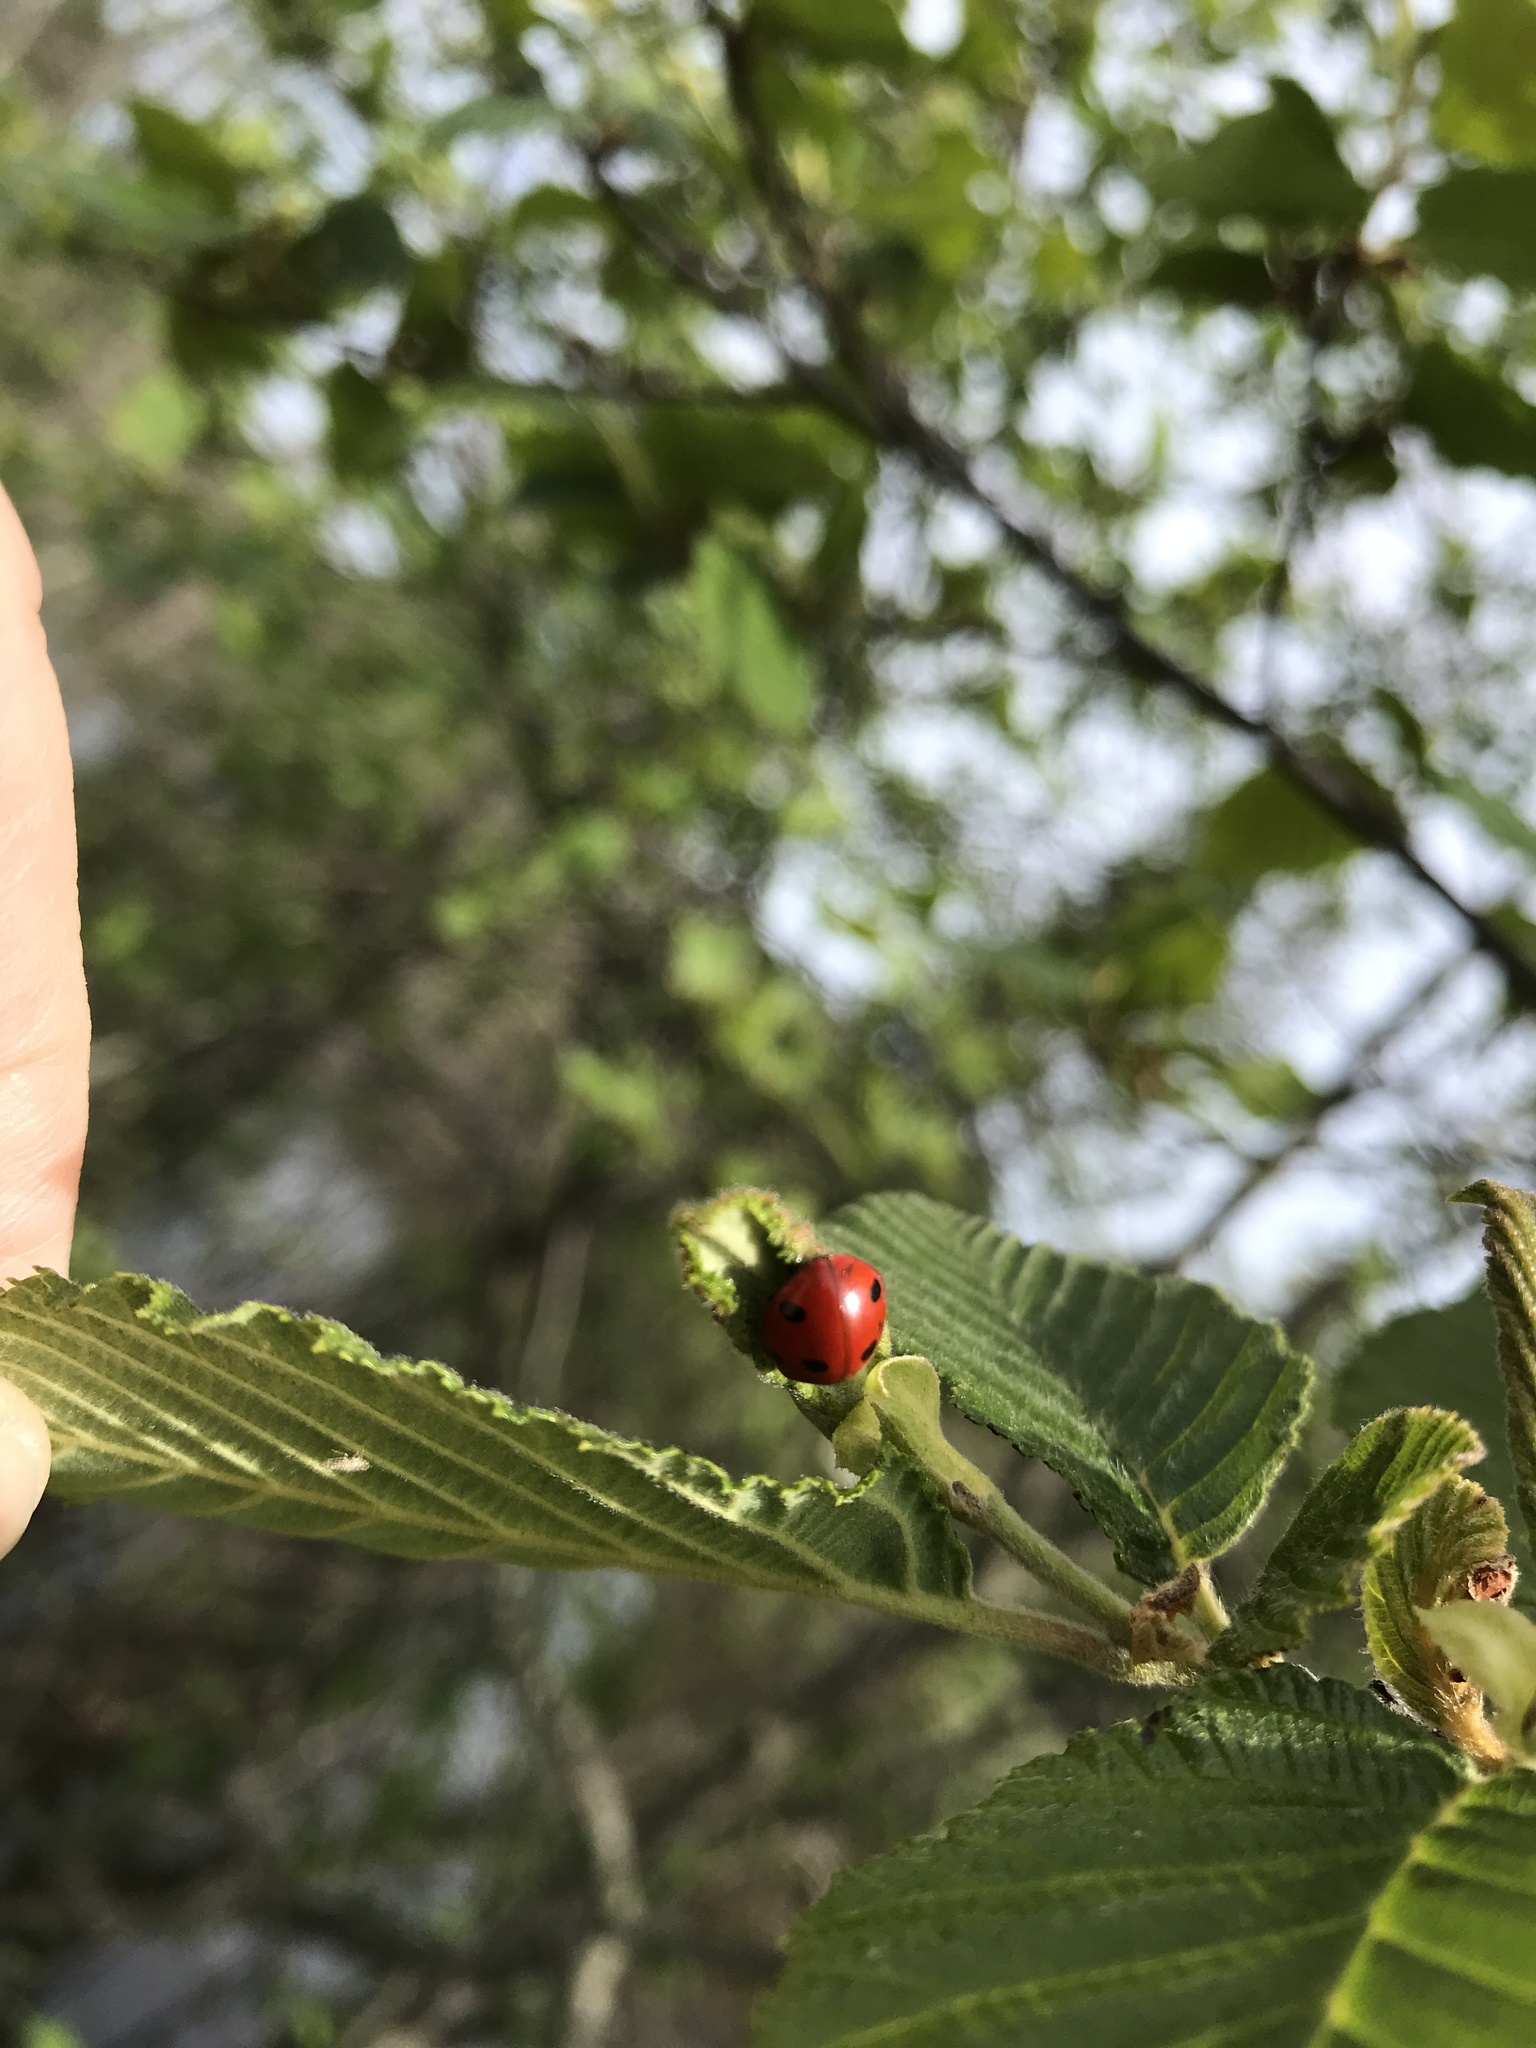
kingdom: Animalia
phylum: Arthropoda
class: Insecta
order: Coleoptera
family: Coccinellidae
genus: Coccinella
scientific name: Coccinella septempunctata
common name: Sevenspotted lady beetle
